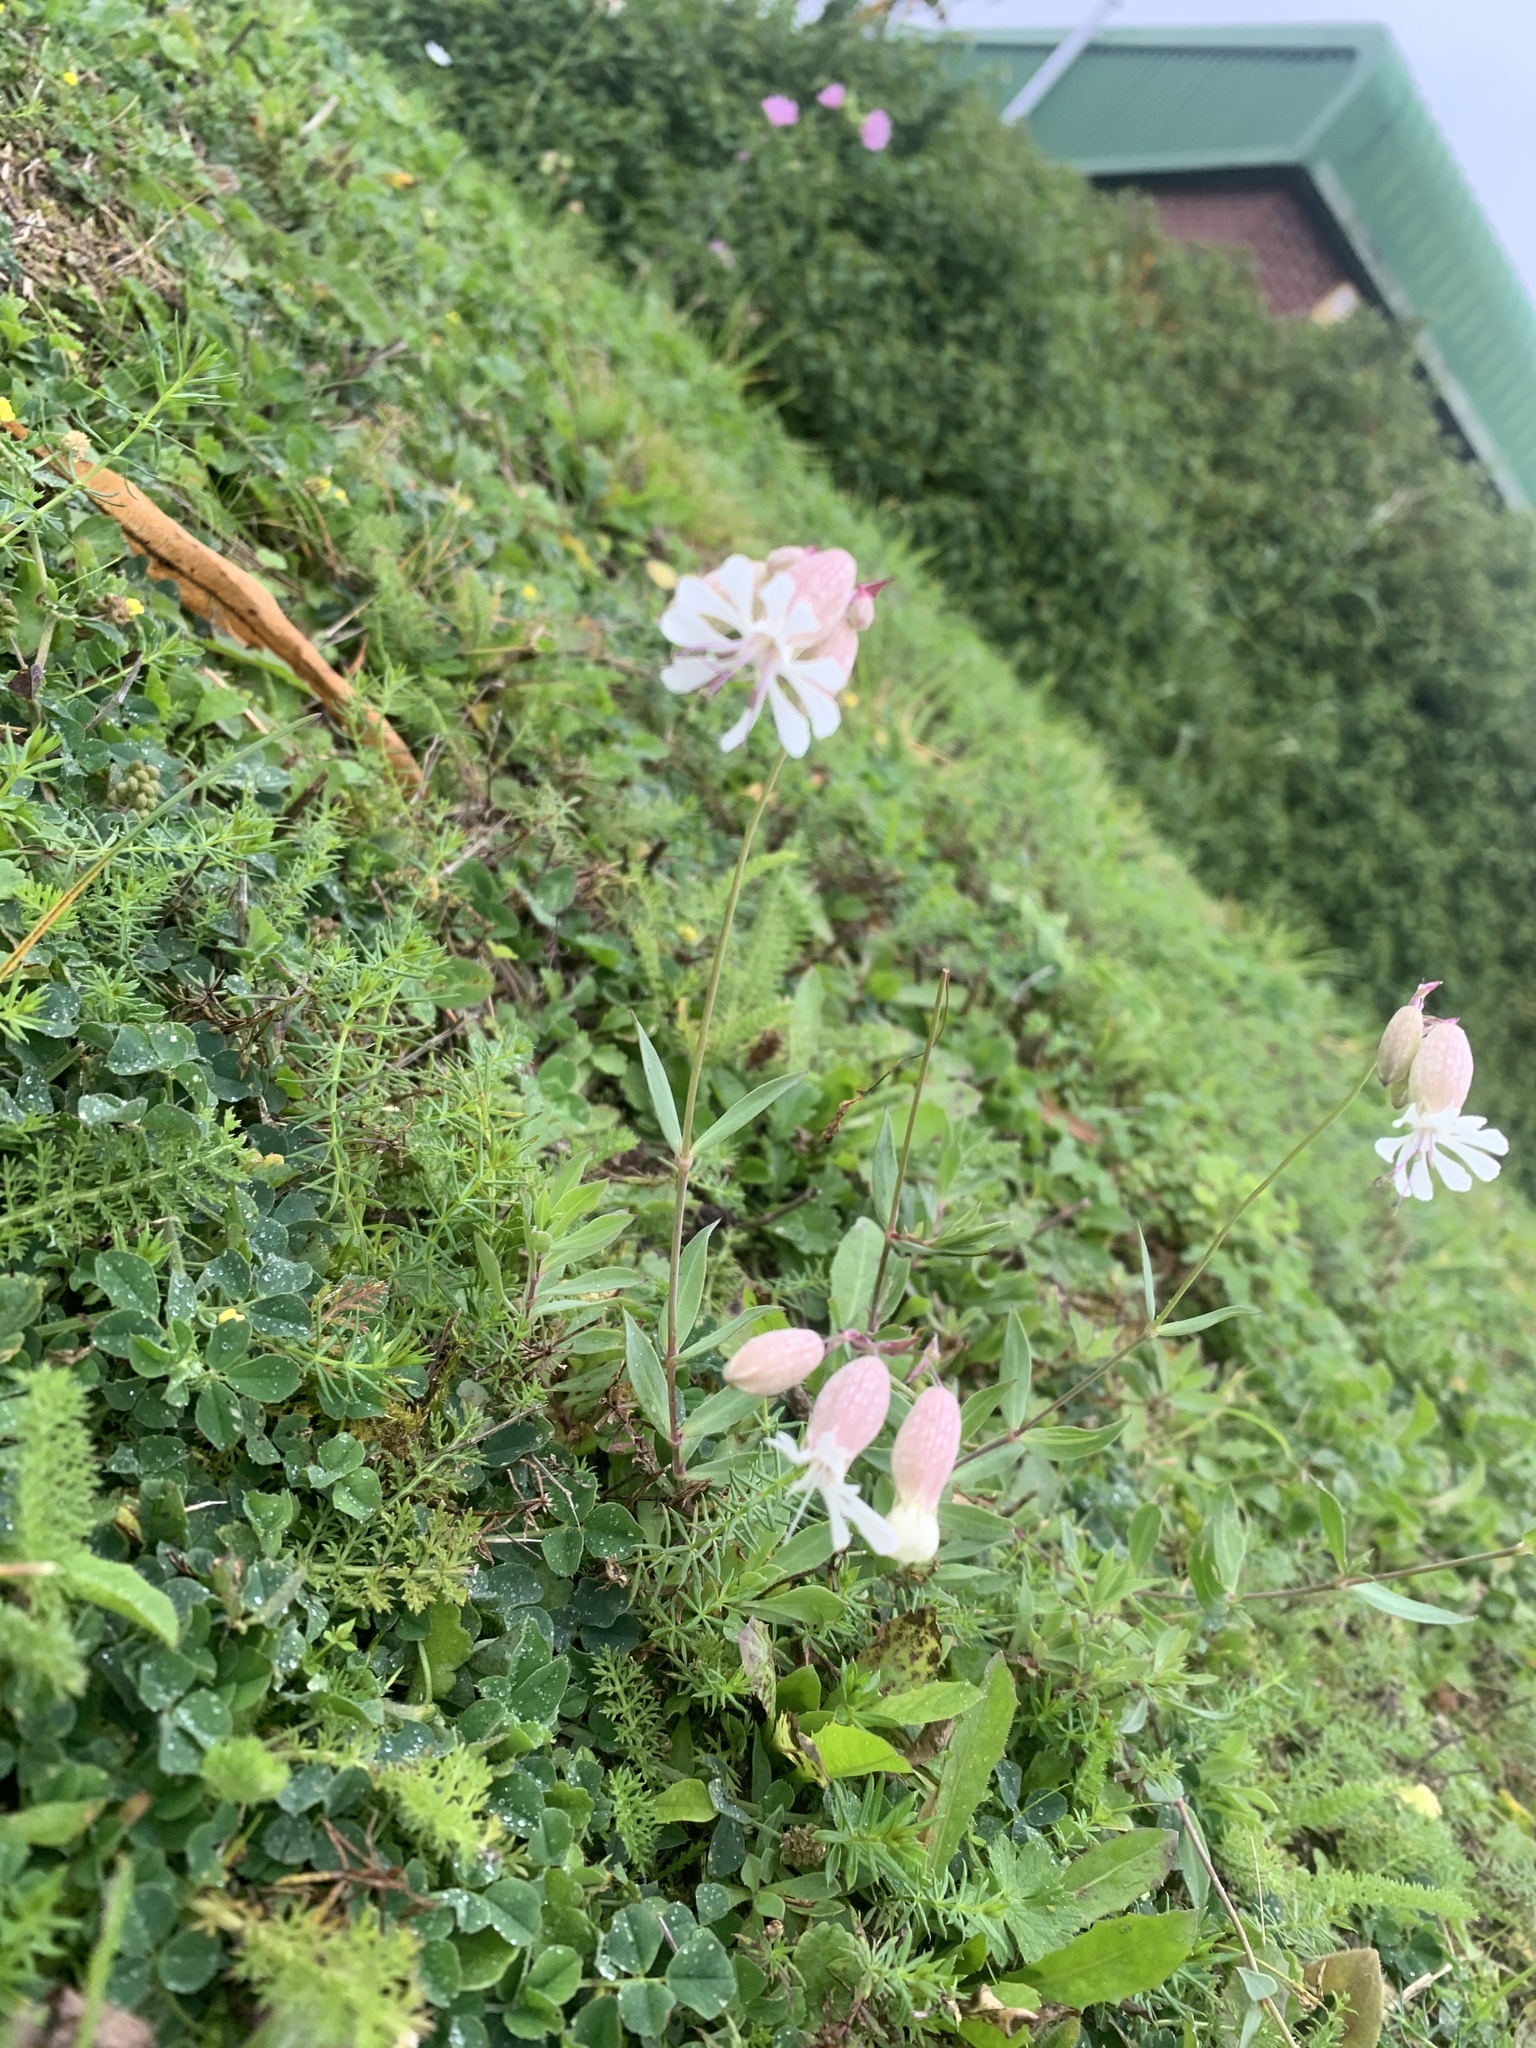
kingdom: Plantae
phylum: Tracheophyta
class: Magnoliopsida
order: Caryophyllales
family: Caryophyllaceae
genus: Silene
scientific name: Silene vulgaris
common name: Bladder campion
